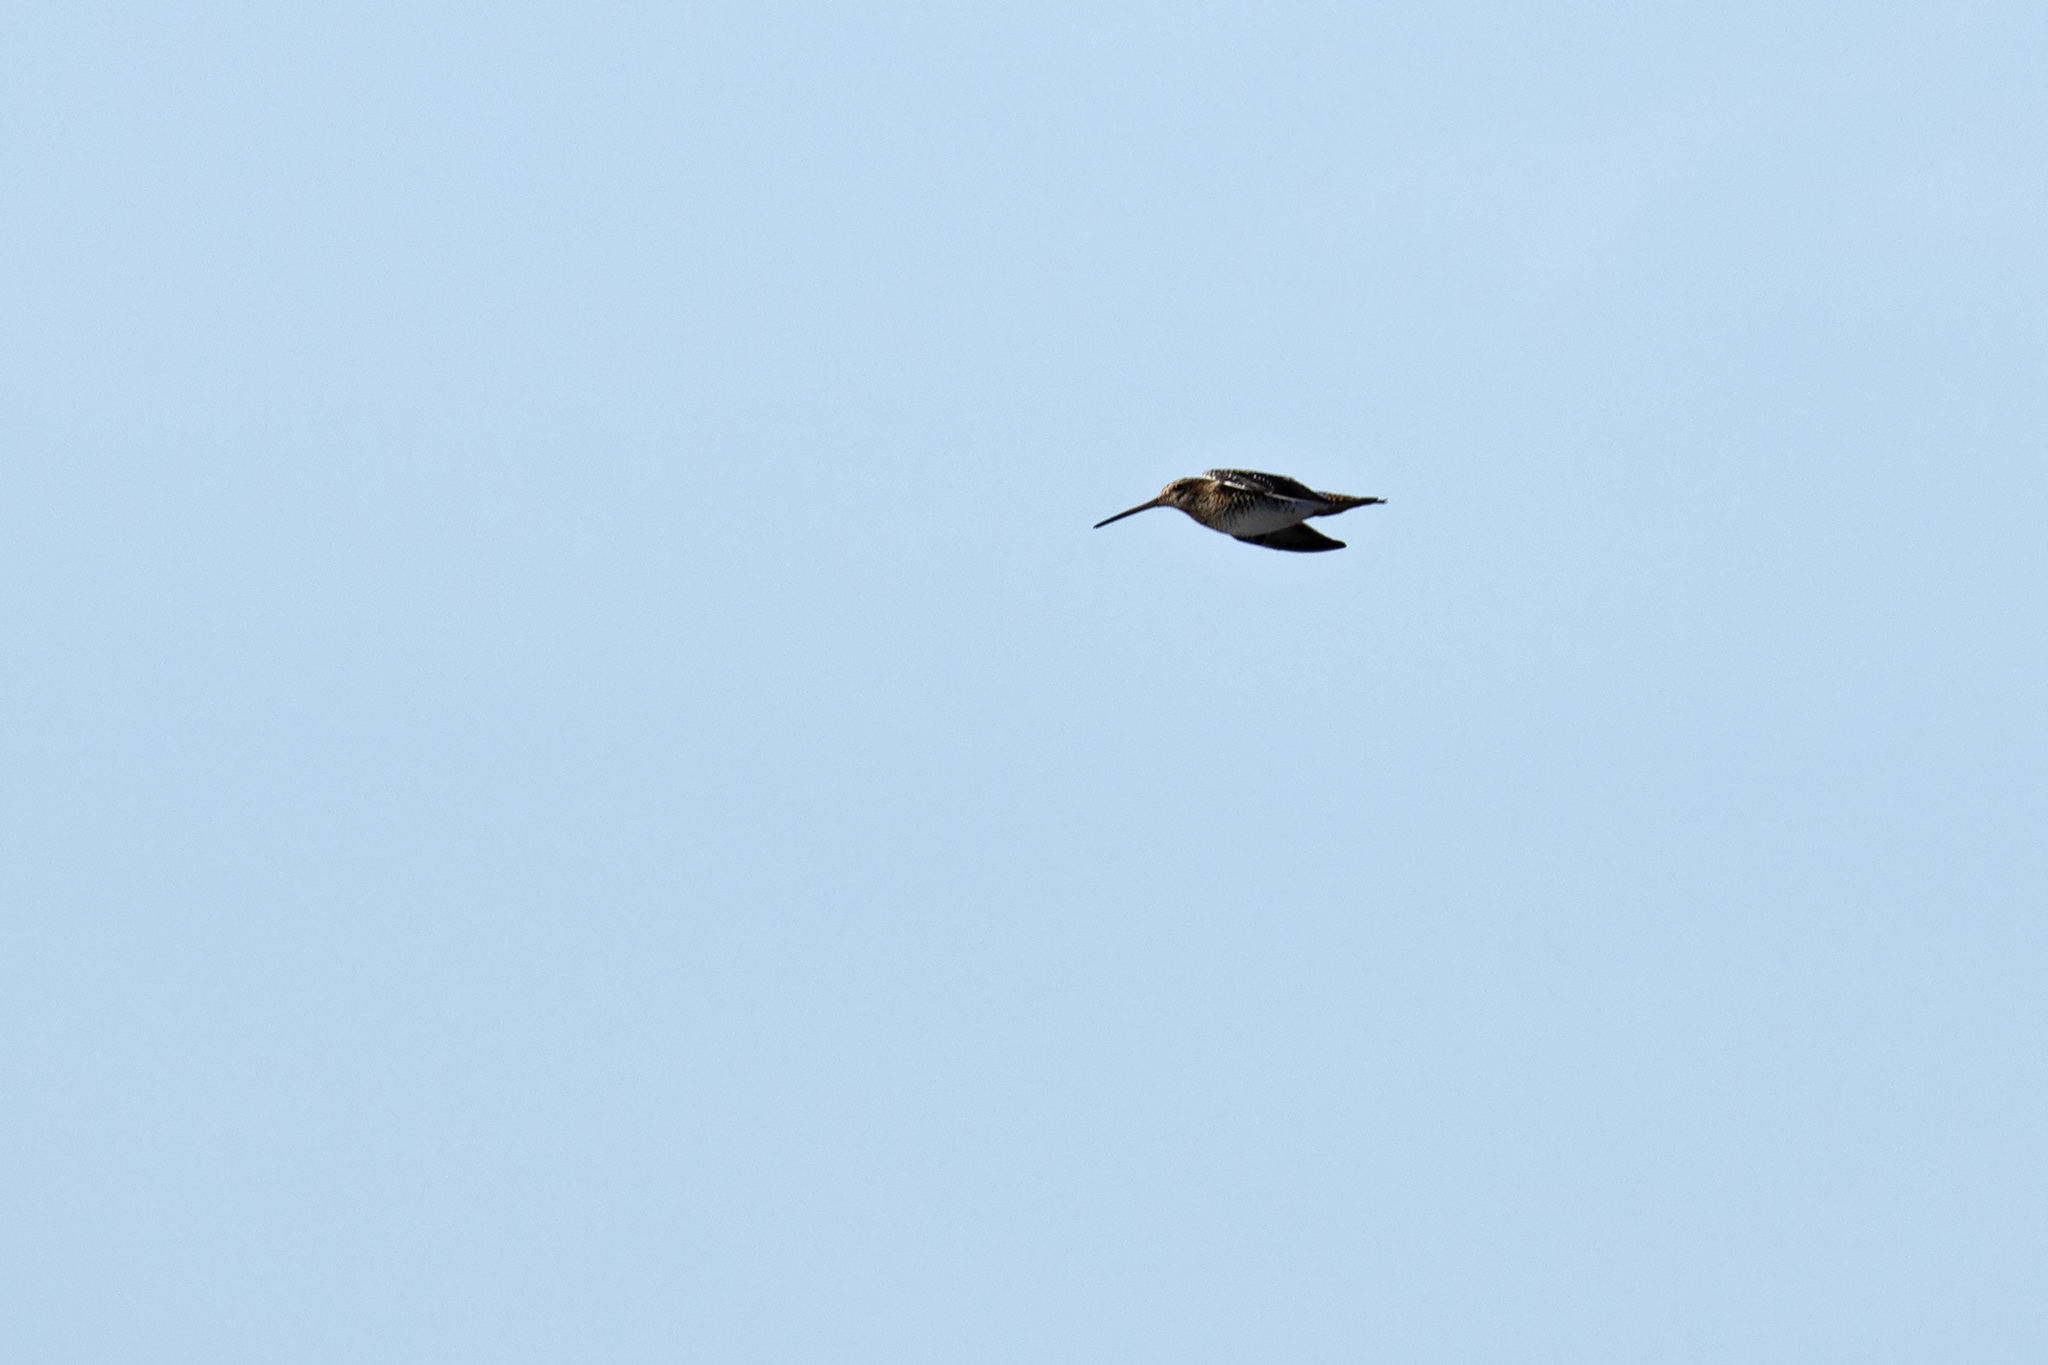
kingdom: Animalia
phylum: Chordata
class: Aves
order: Charadriiformes
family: Scolopacidae
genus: Gallinago
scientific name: Gallinago gallinago
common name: Common snipe
